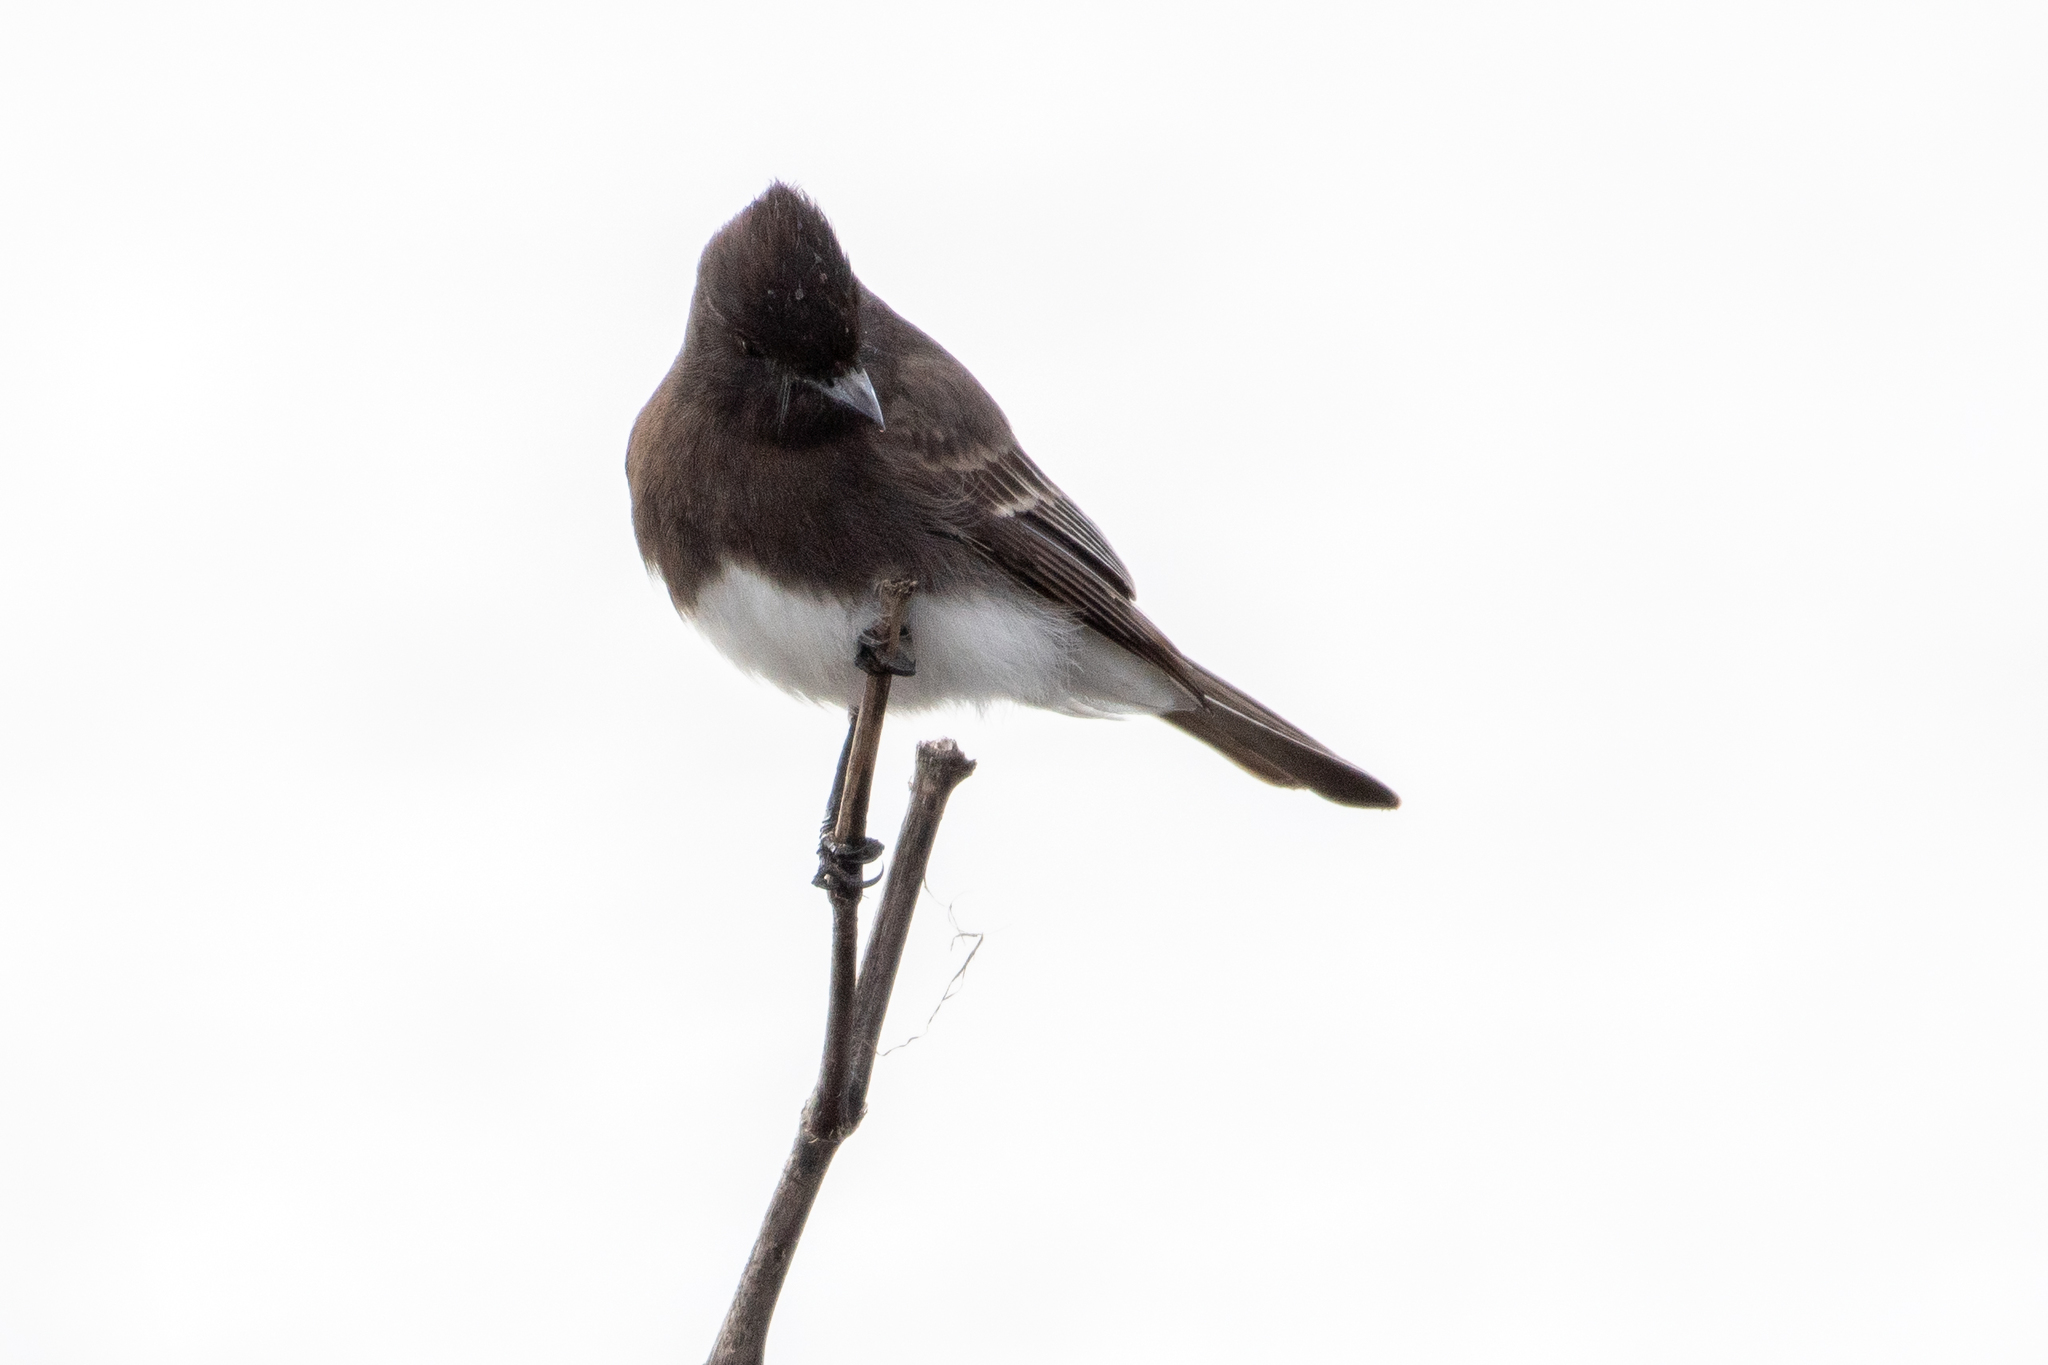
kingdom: Animalia
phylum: Chordata
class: Aves
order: Passeriformes
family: Tyrannidae
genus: Sayornis
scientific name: Sayornis nigricans
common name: Black phoebe
